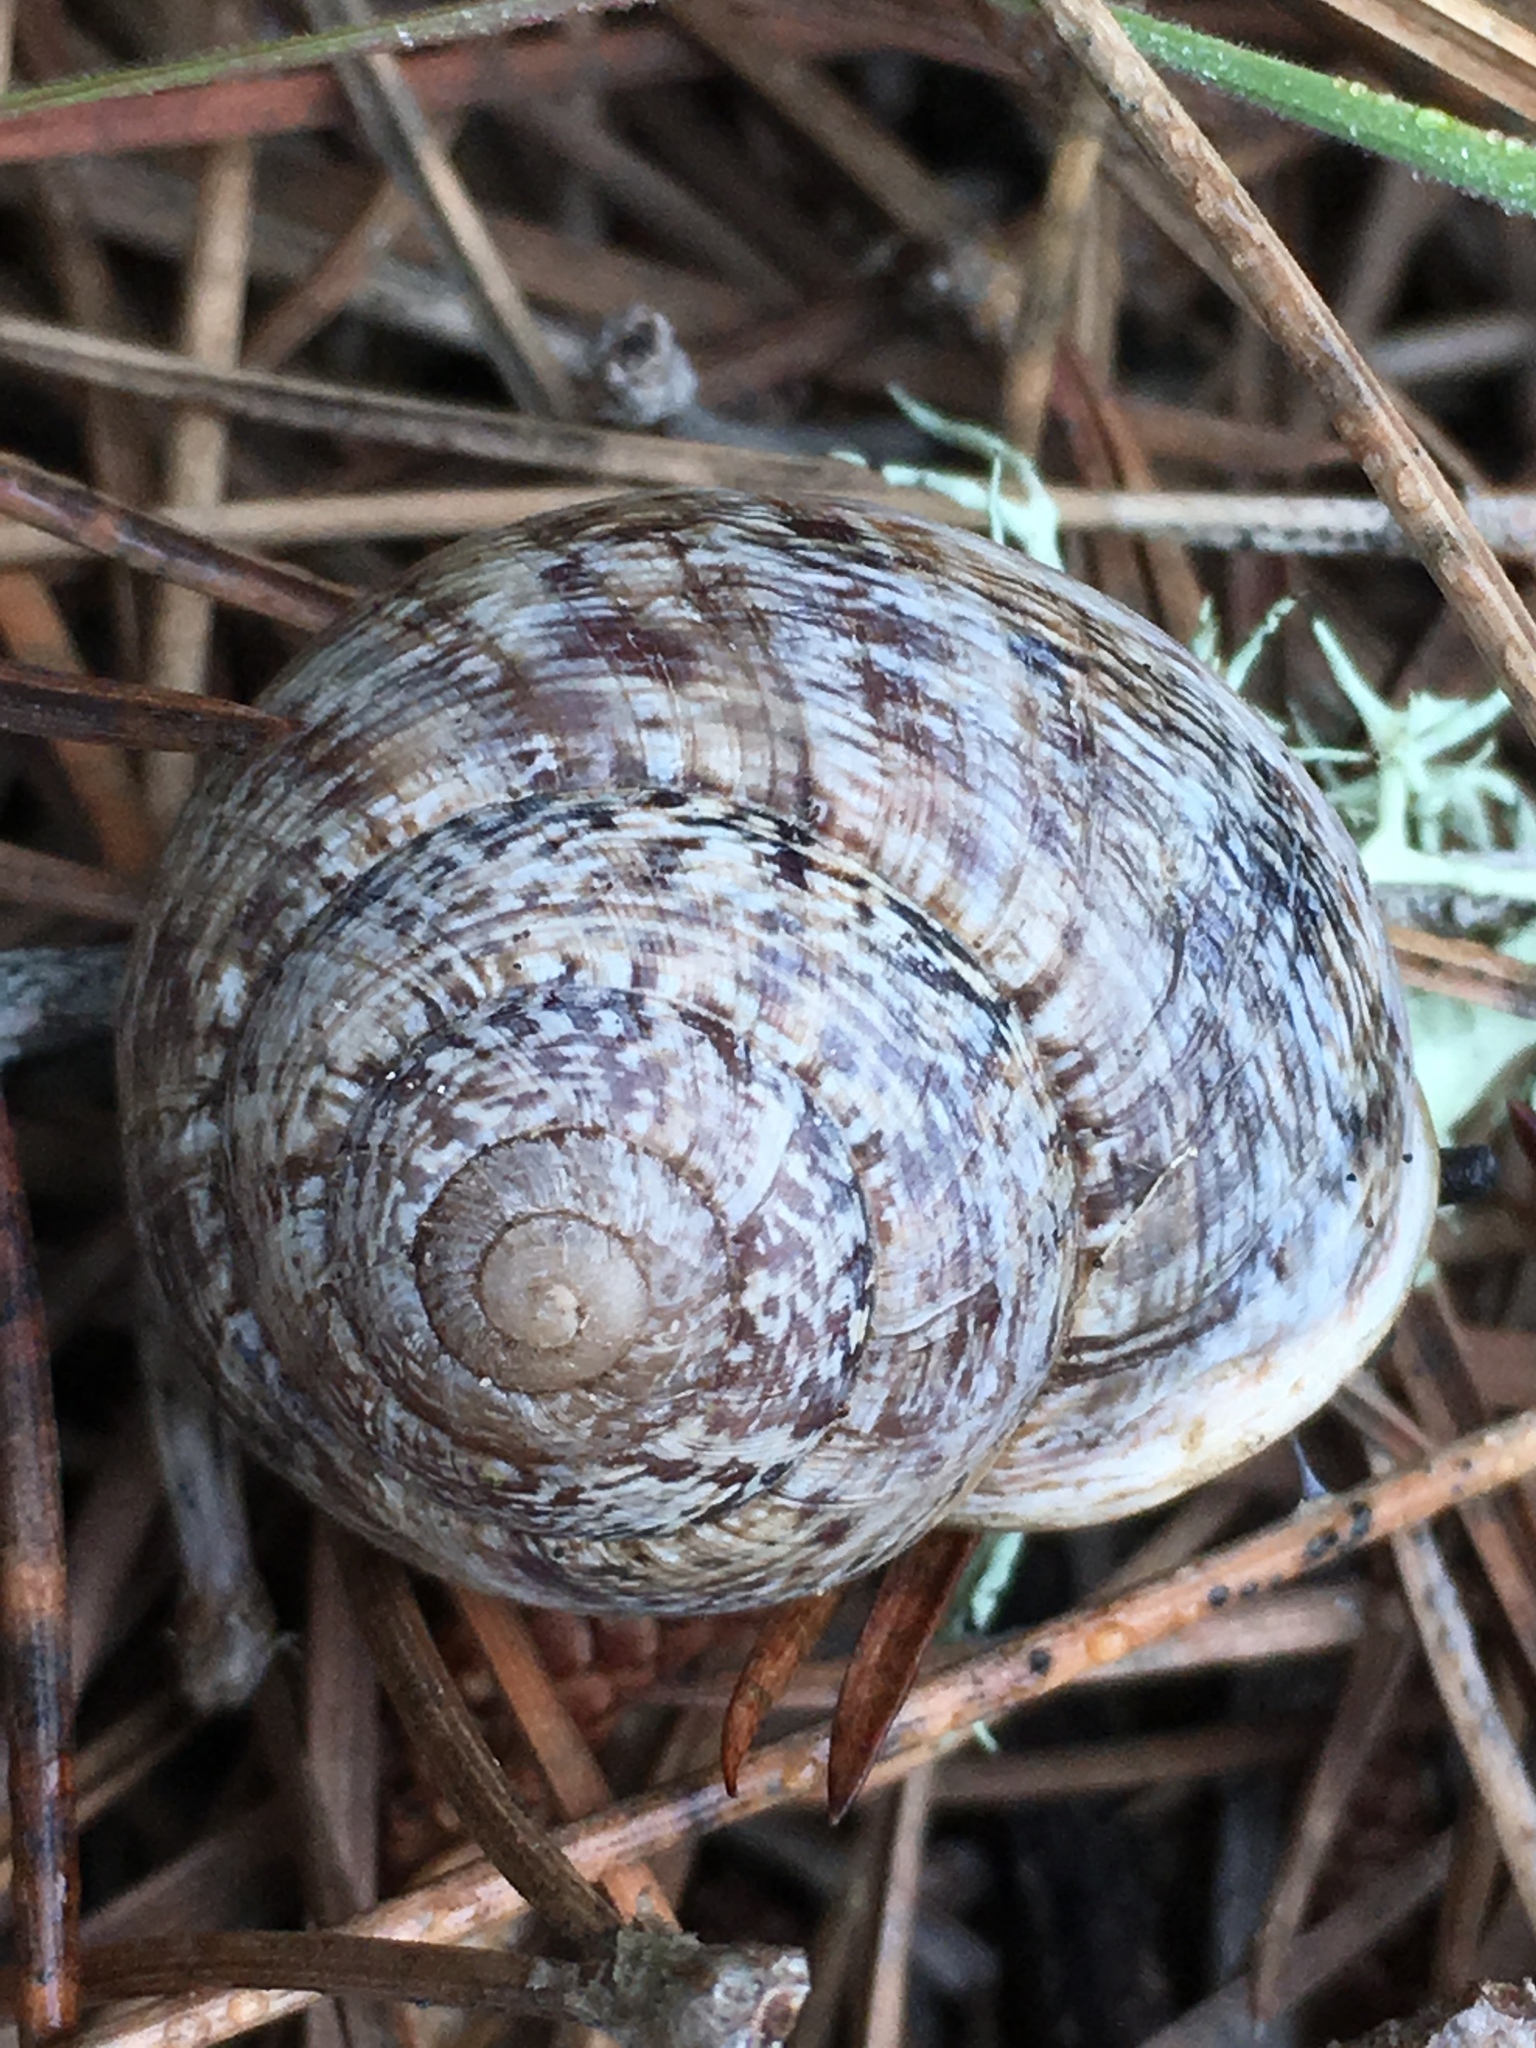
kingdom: Animalia
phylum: Mollusca
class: Gastropoda
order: Stylommatophora
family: Xanthonychidae
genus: Xerarionta
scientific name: Xerarionta tryoni
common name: Bicolor cactus snail
